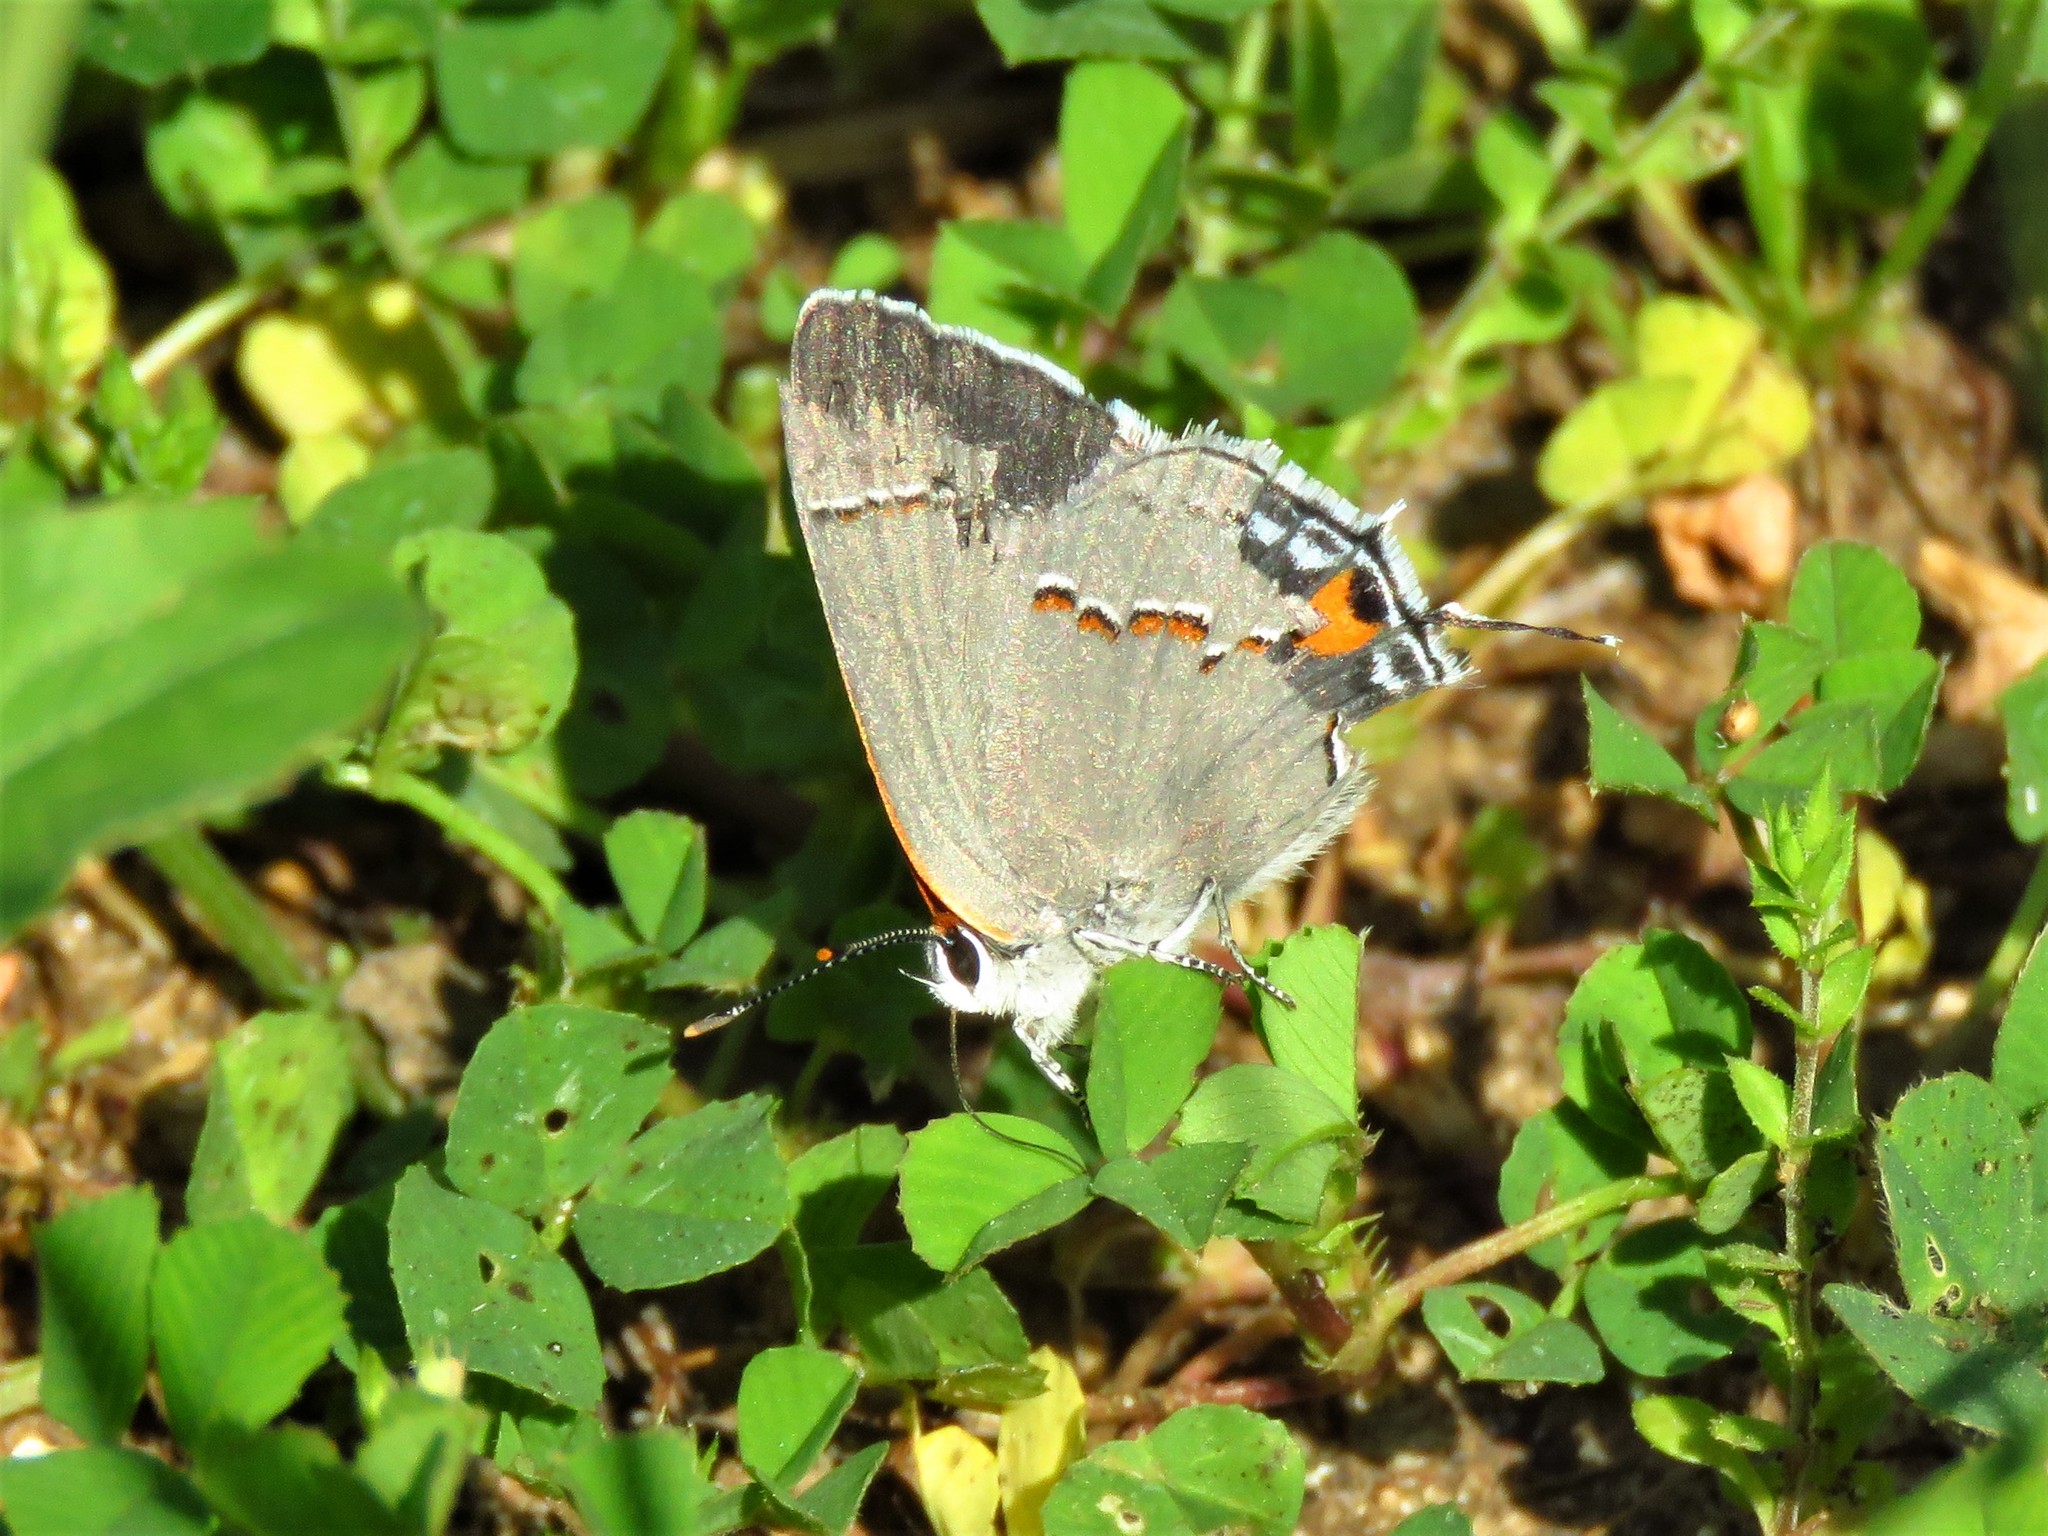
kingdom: Animalia
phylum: Arthropoda
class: Insecta
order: Lepidoptera
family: Lycaenidae
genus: Strymon
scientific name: Strymon melinus
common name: Gray hairstreak
